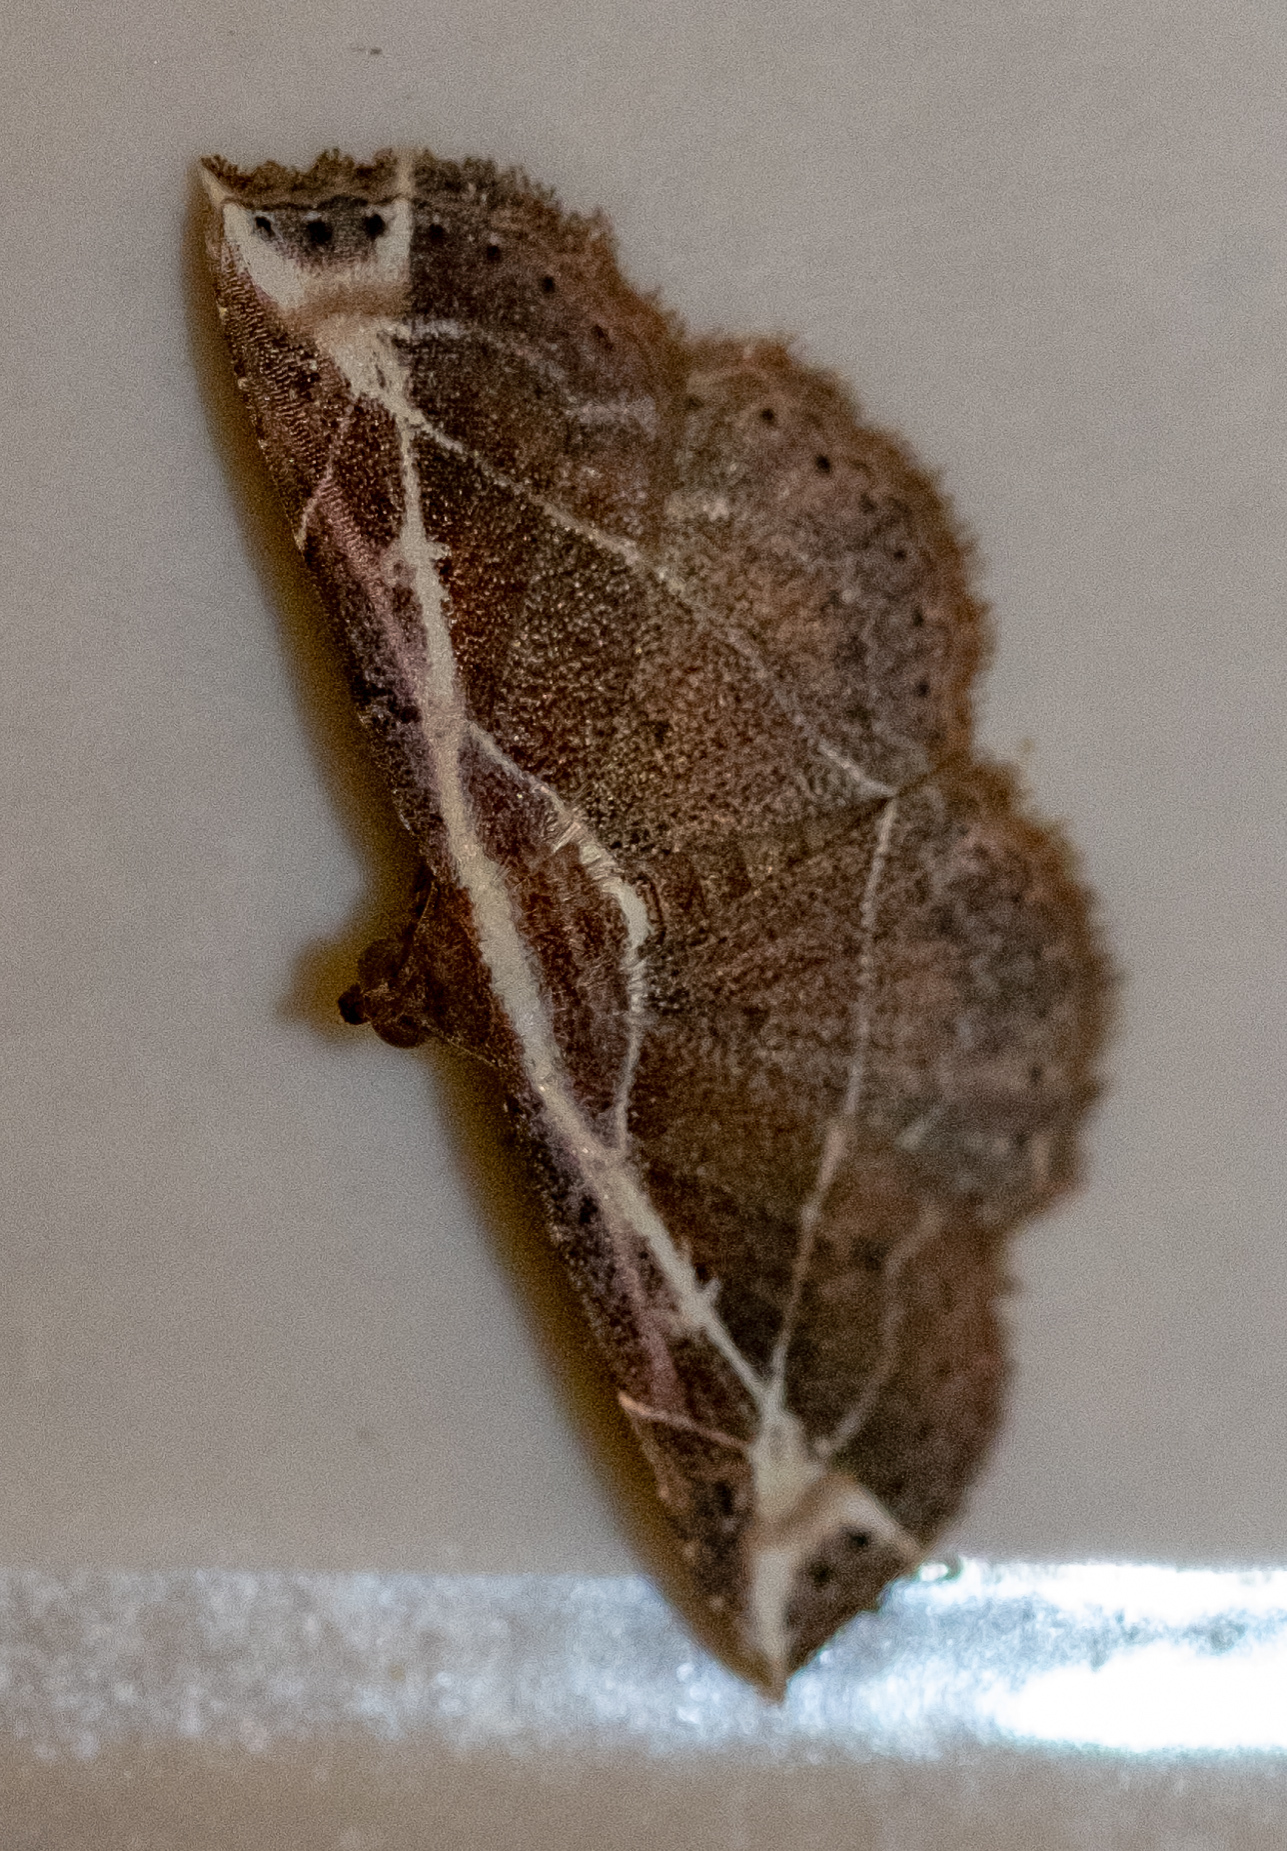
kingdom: Animalia
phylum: Arthropoda
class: Insecta
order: Lepidoptera
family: Erebidae
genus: Zurobata
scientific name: Zurobata fissifascia
